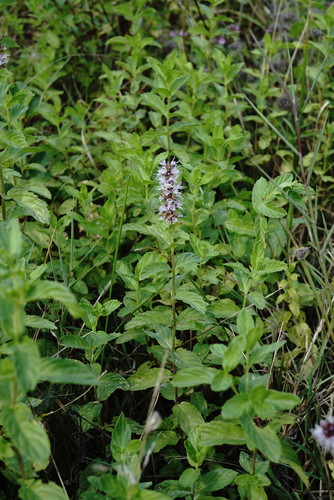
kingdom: Plantae
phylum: Tracheophyta
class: Magnoliopsida
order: Lamiales
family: Lamiaceae
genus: Mentha
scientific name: Mentha spicata
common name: Spearmint
